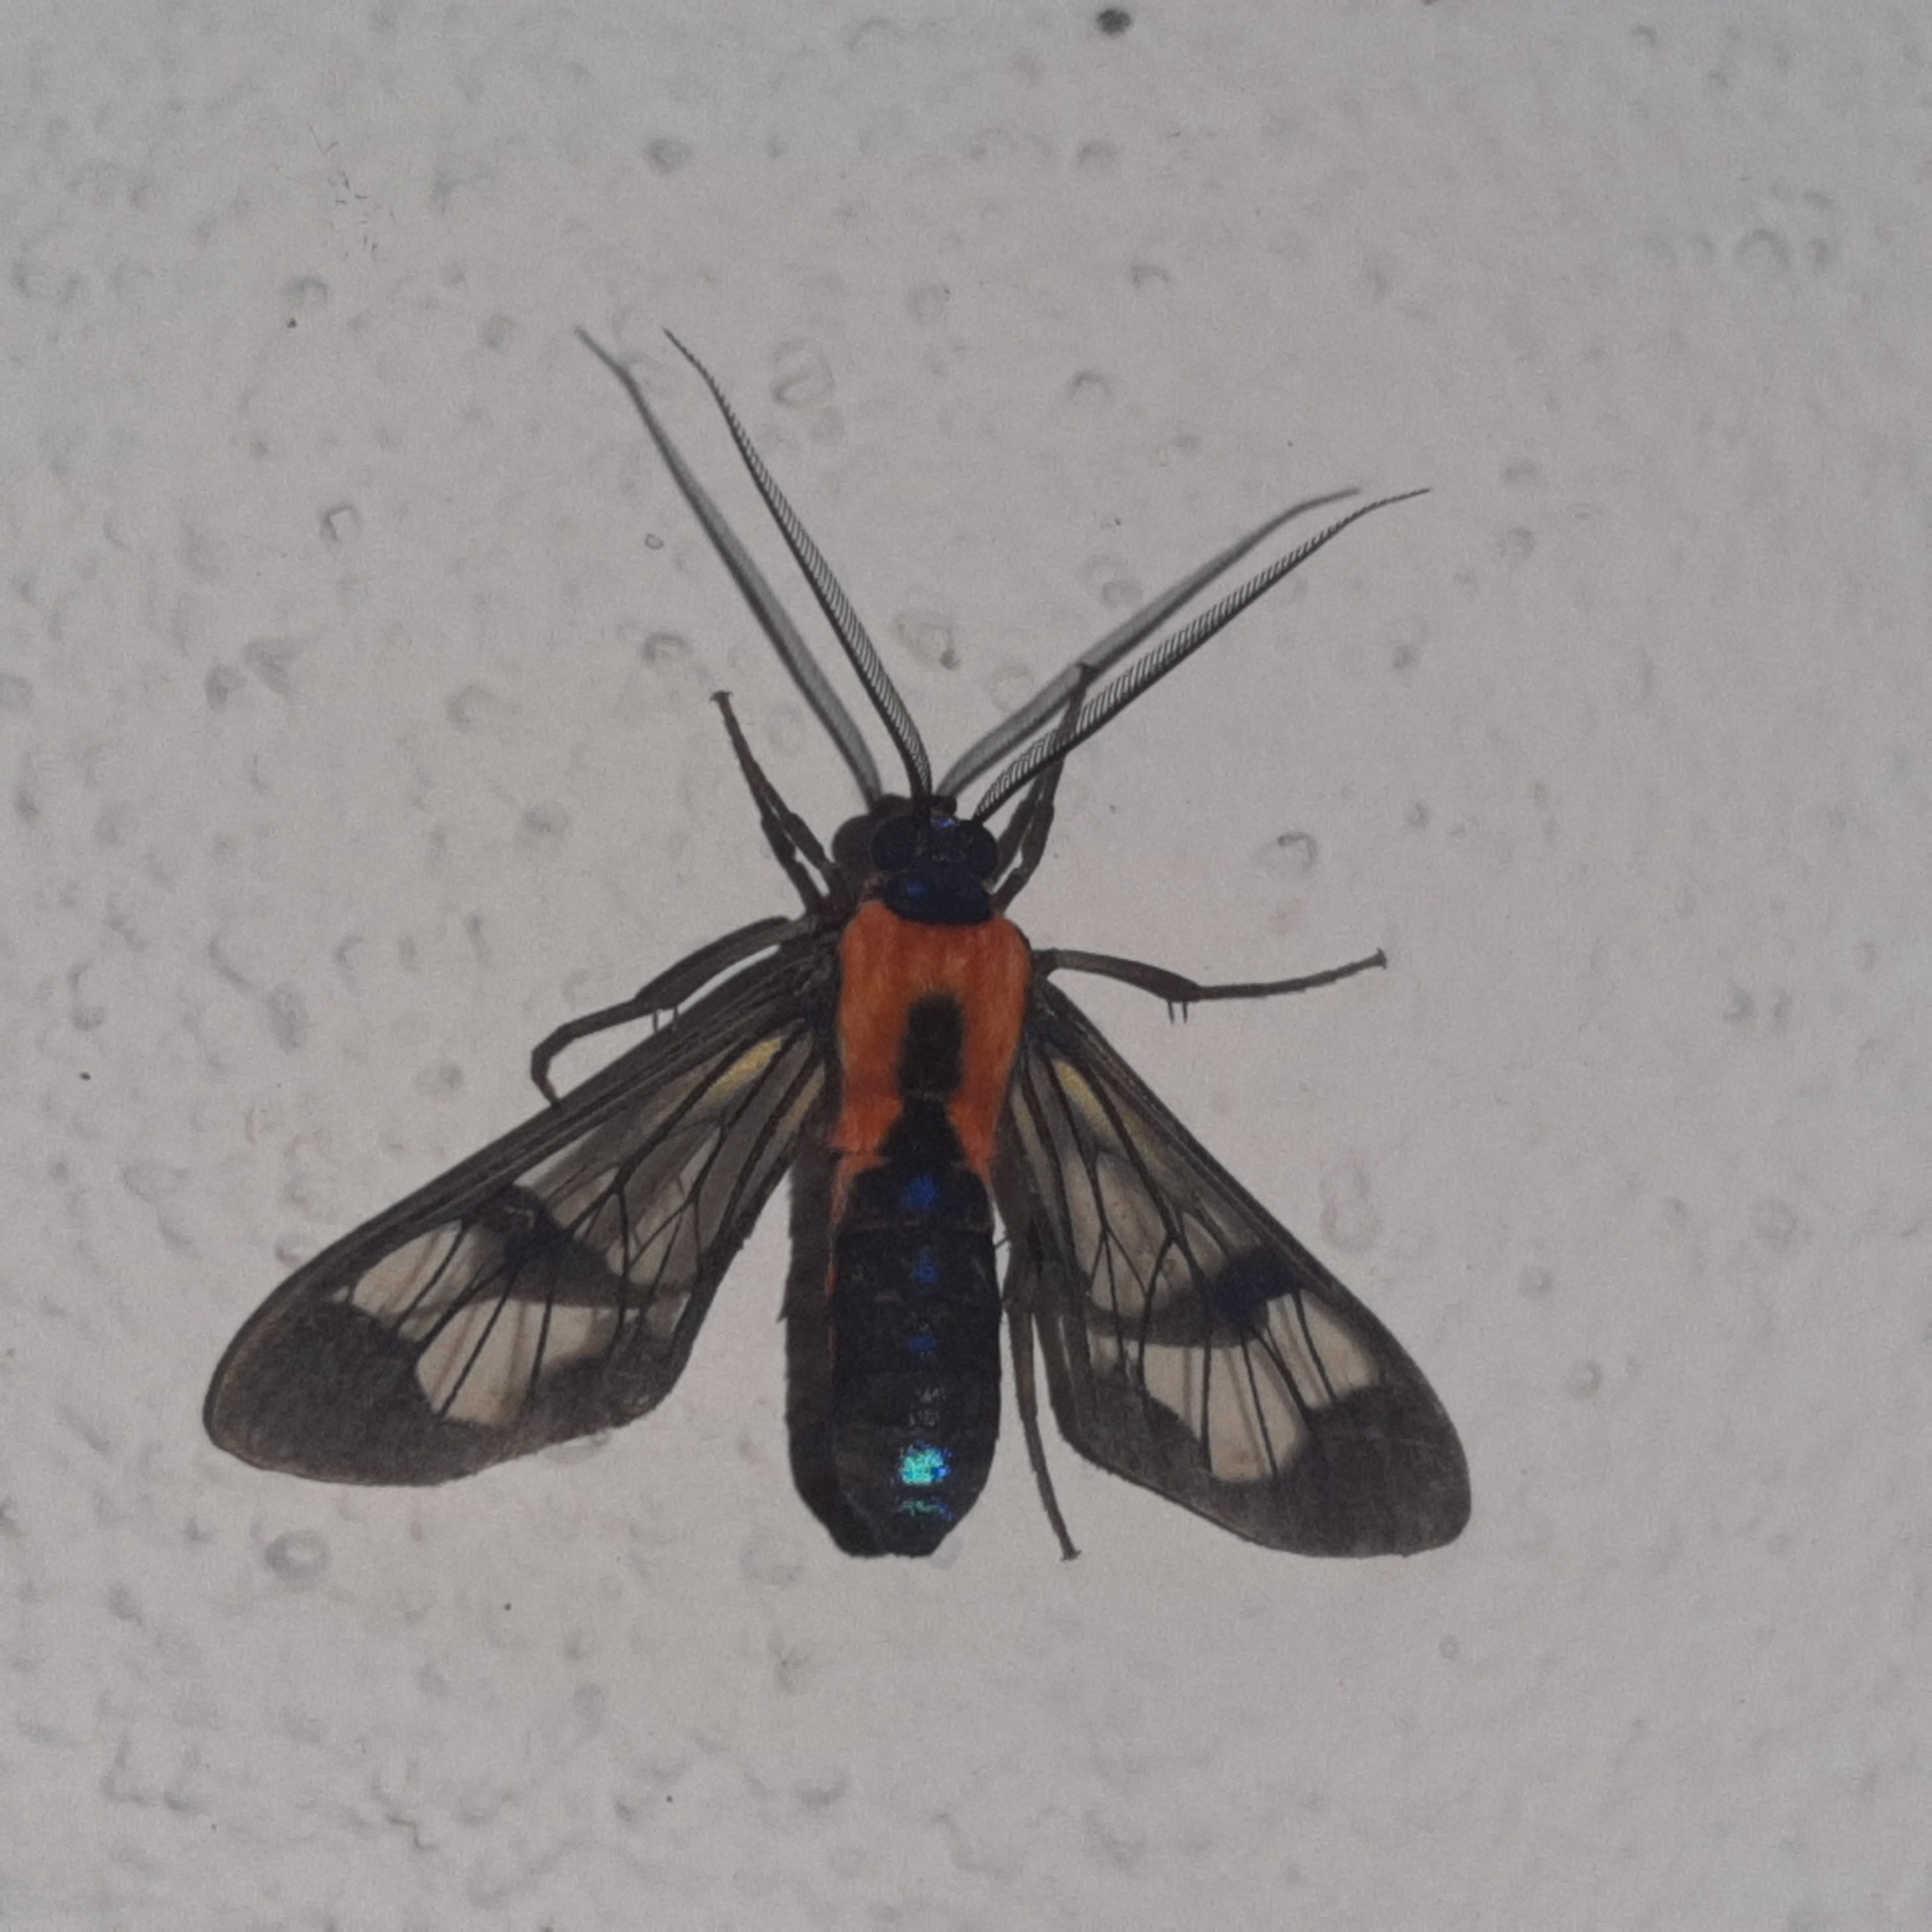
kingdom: Animalia
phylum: Arthropoda
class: Insecta
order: Lepidoptera
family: Erebidae
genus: Cosmosoma
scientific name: Cosmosoma impar
